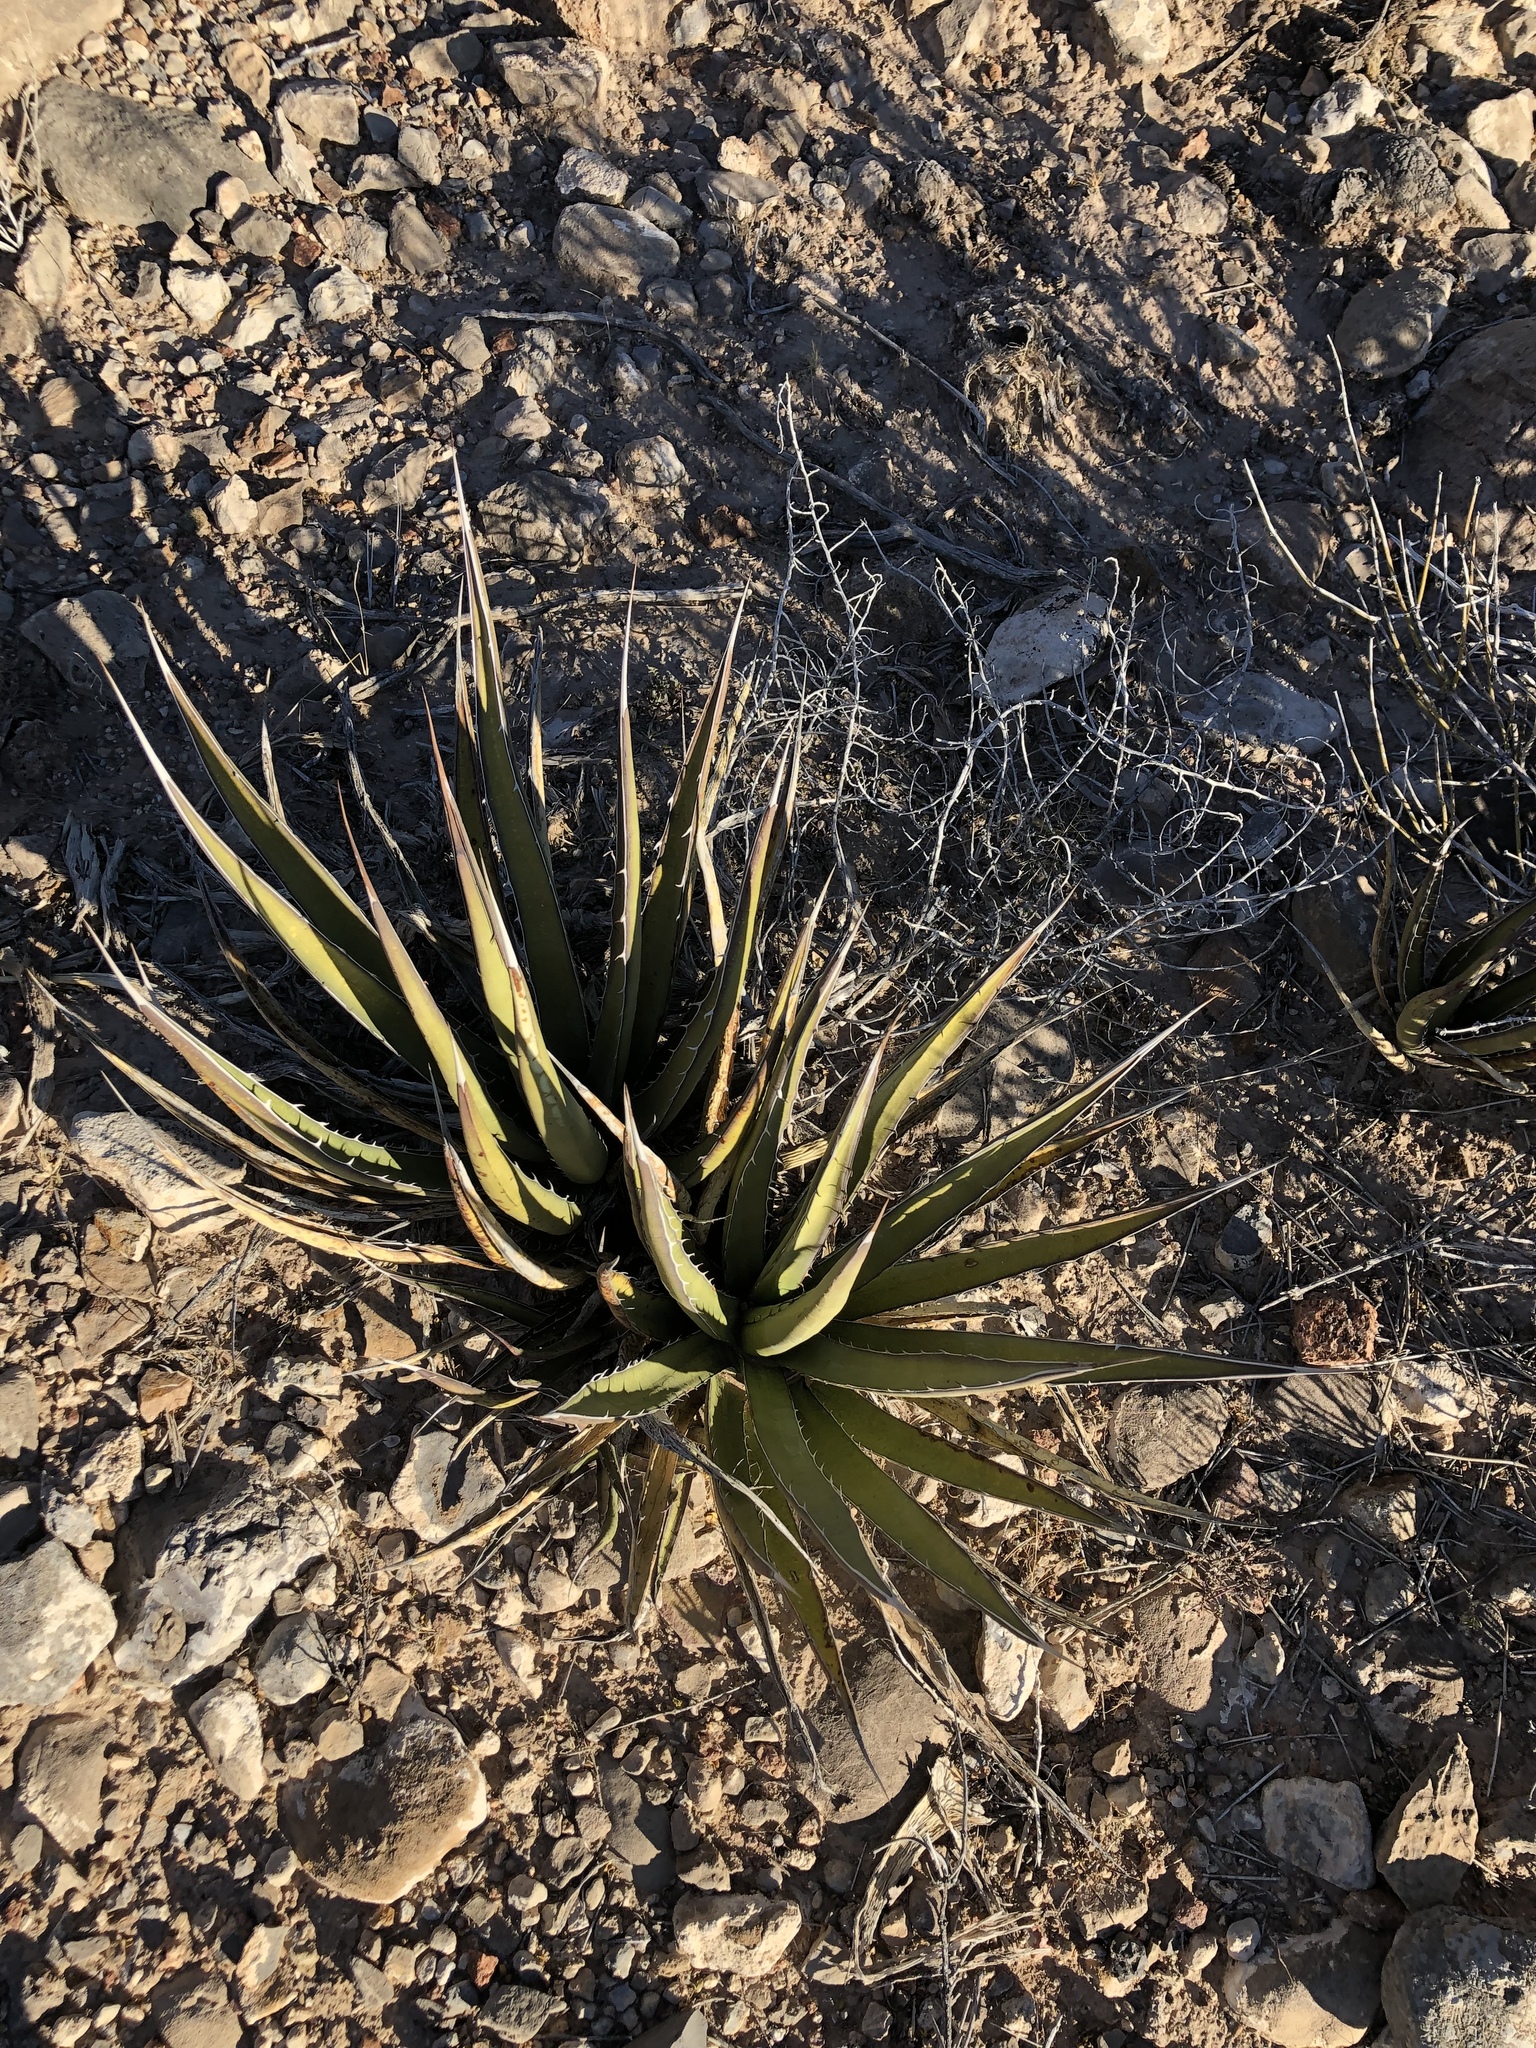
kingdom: Plantae
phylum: Tracheophyta
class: Liliopsida
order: Asparagales
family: Asparagaceae
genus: Agave
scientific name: Agave lechuguilla
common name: Lecheguilla agave
